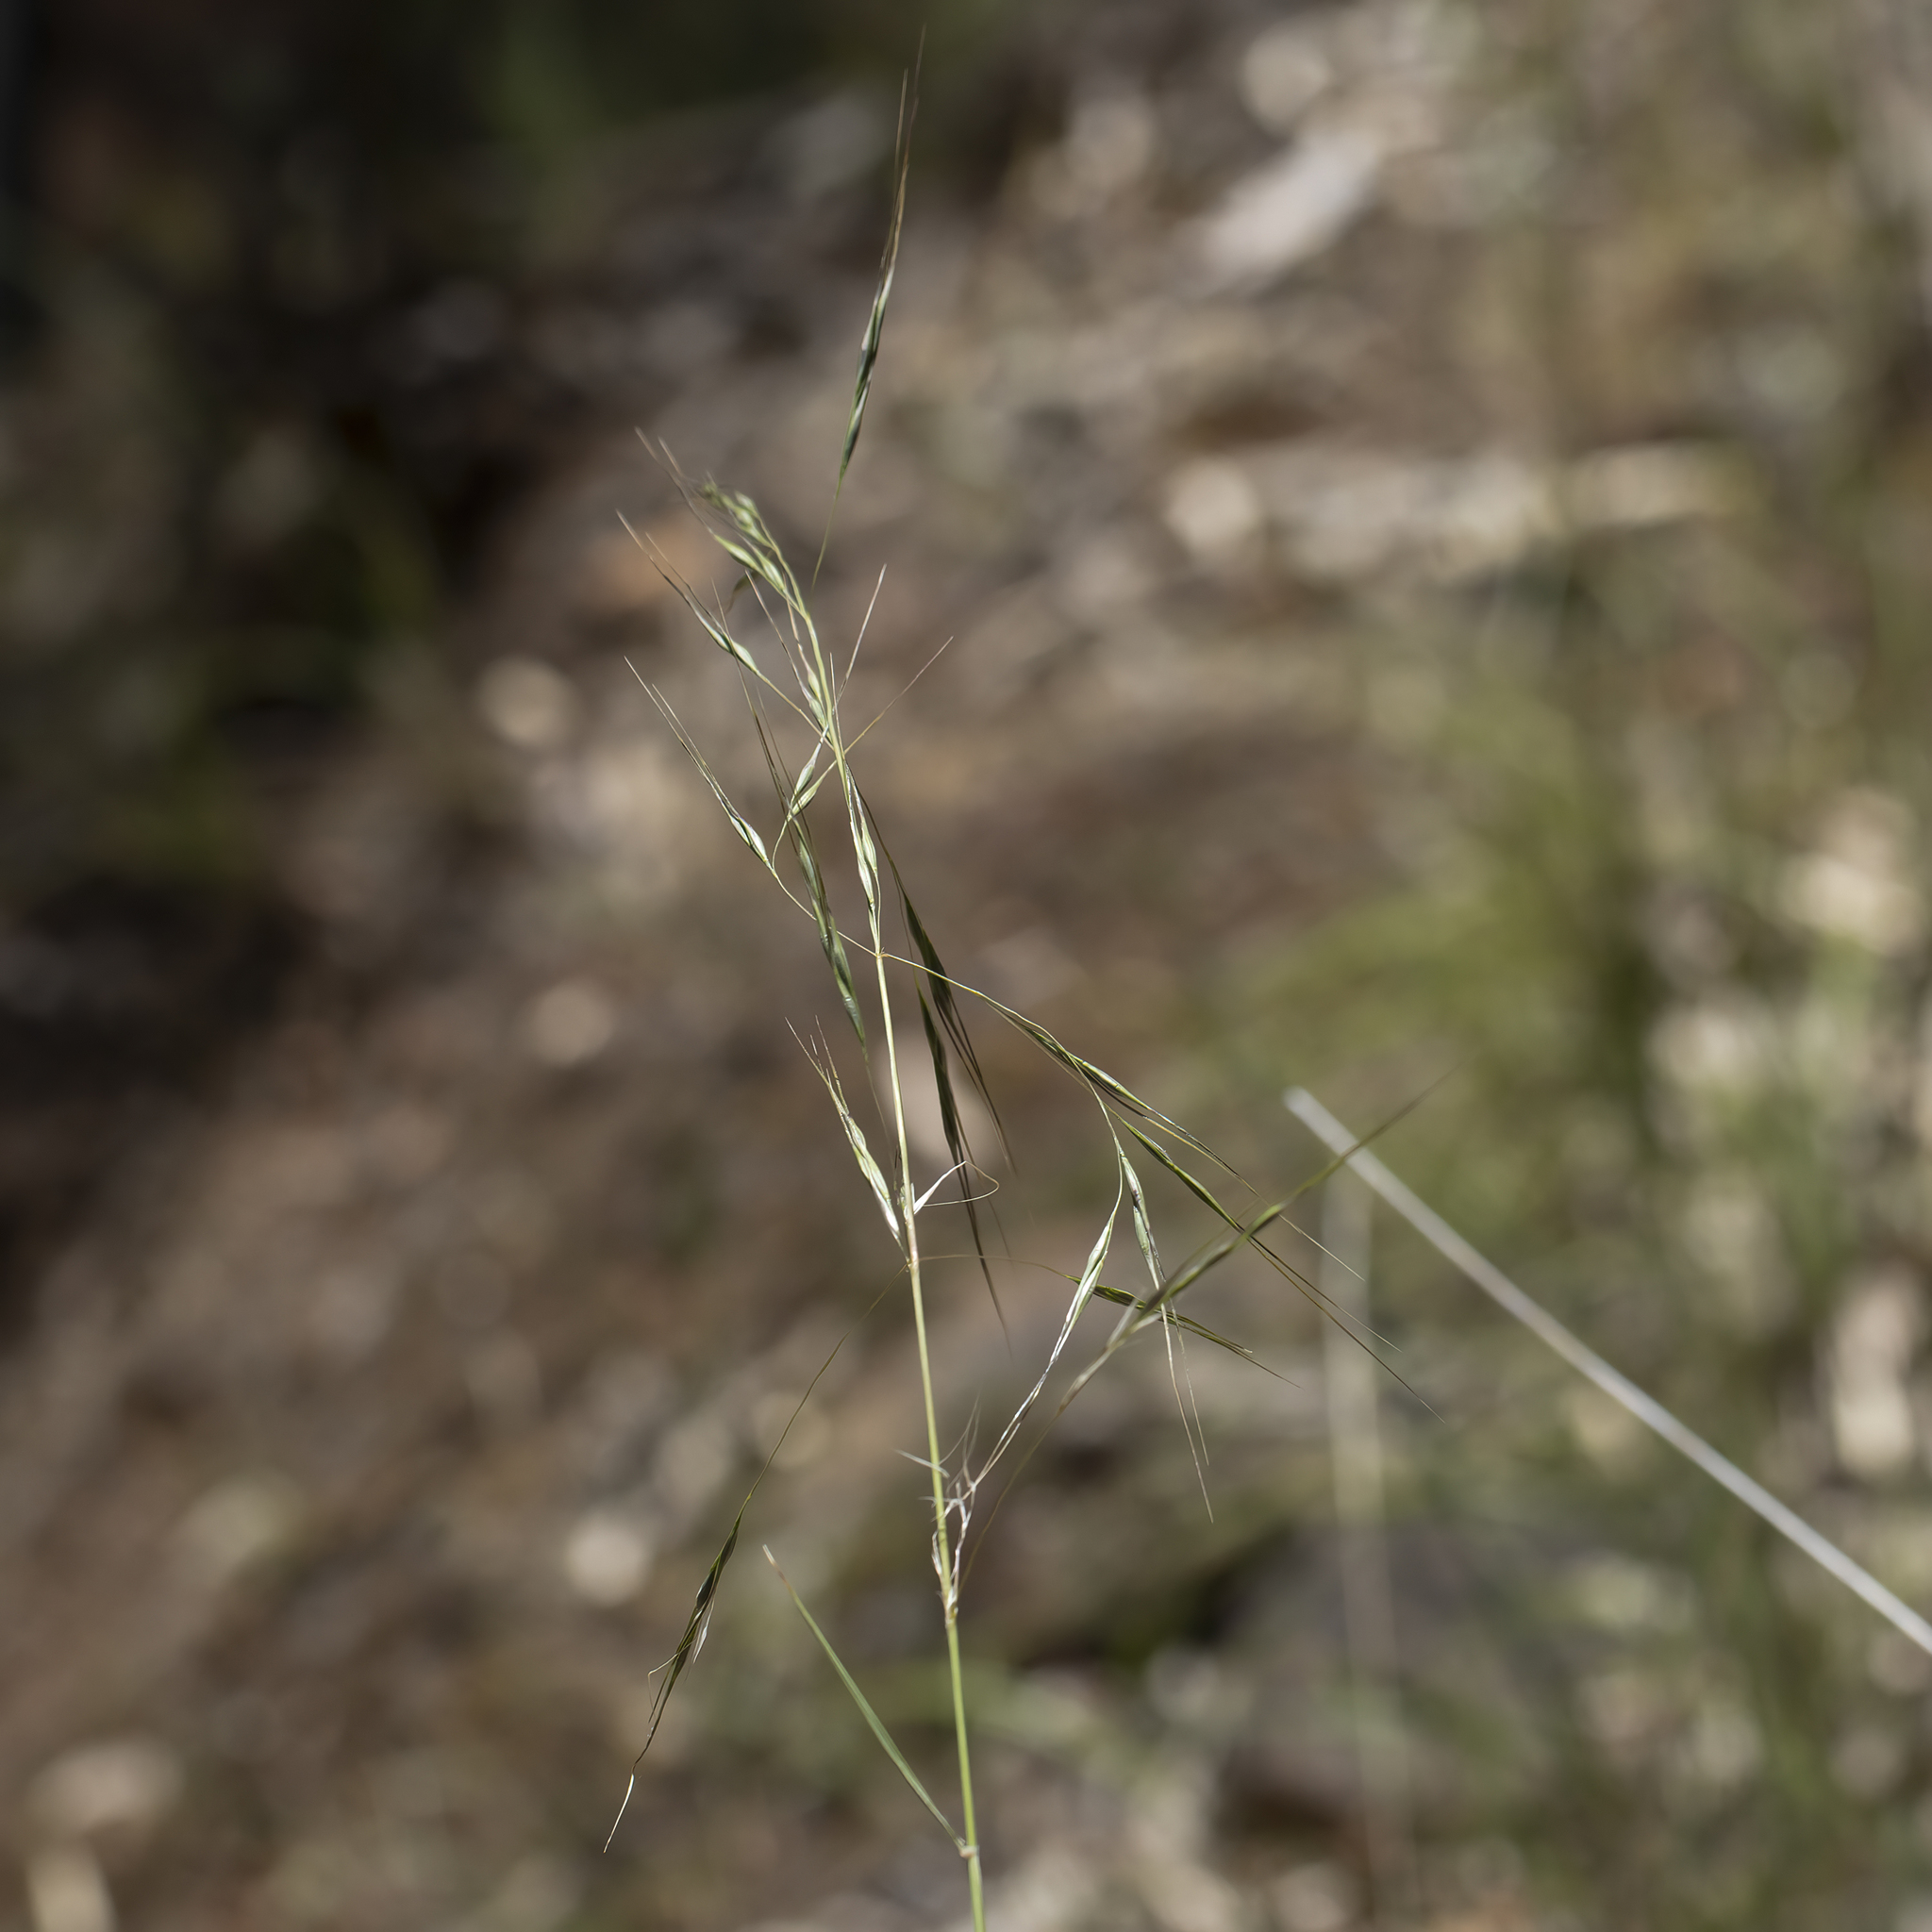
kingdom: Plantae
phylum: Tracheophyta
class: Liliopsida
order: Poales
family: Poaceae
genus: Austrostipa
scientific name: Austrostipa blackii
